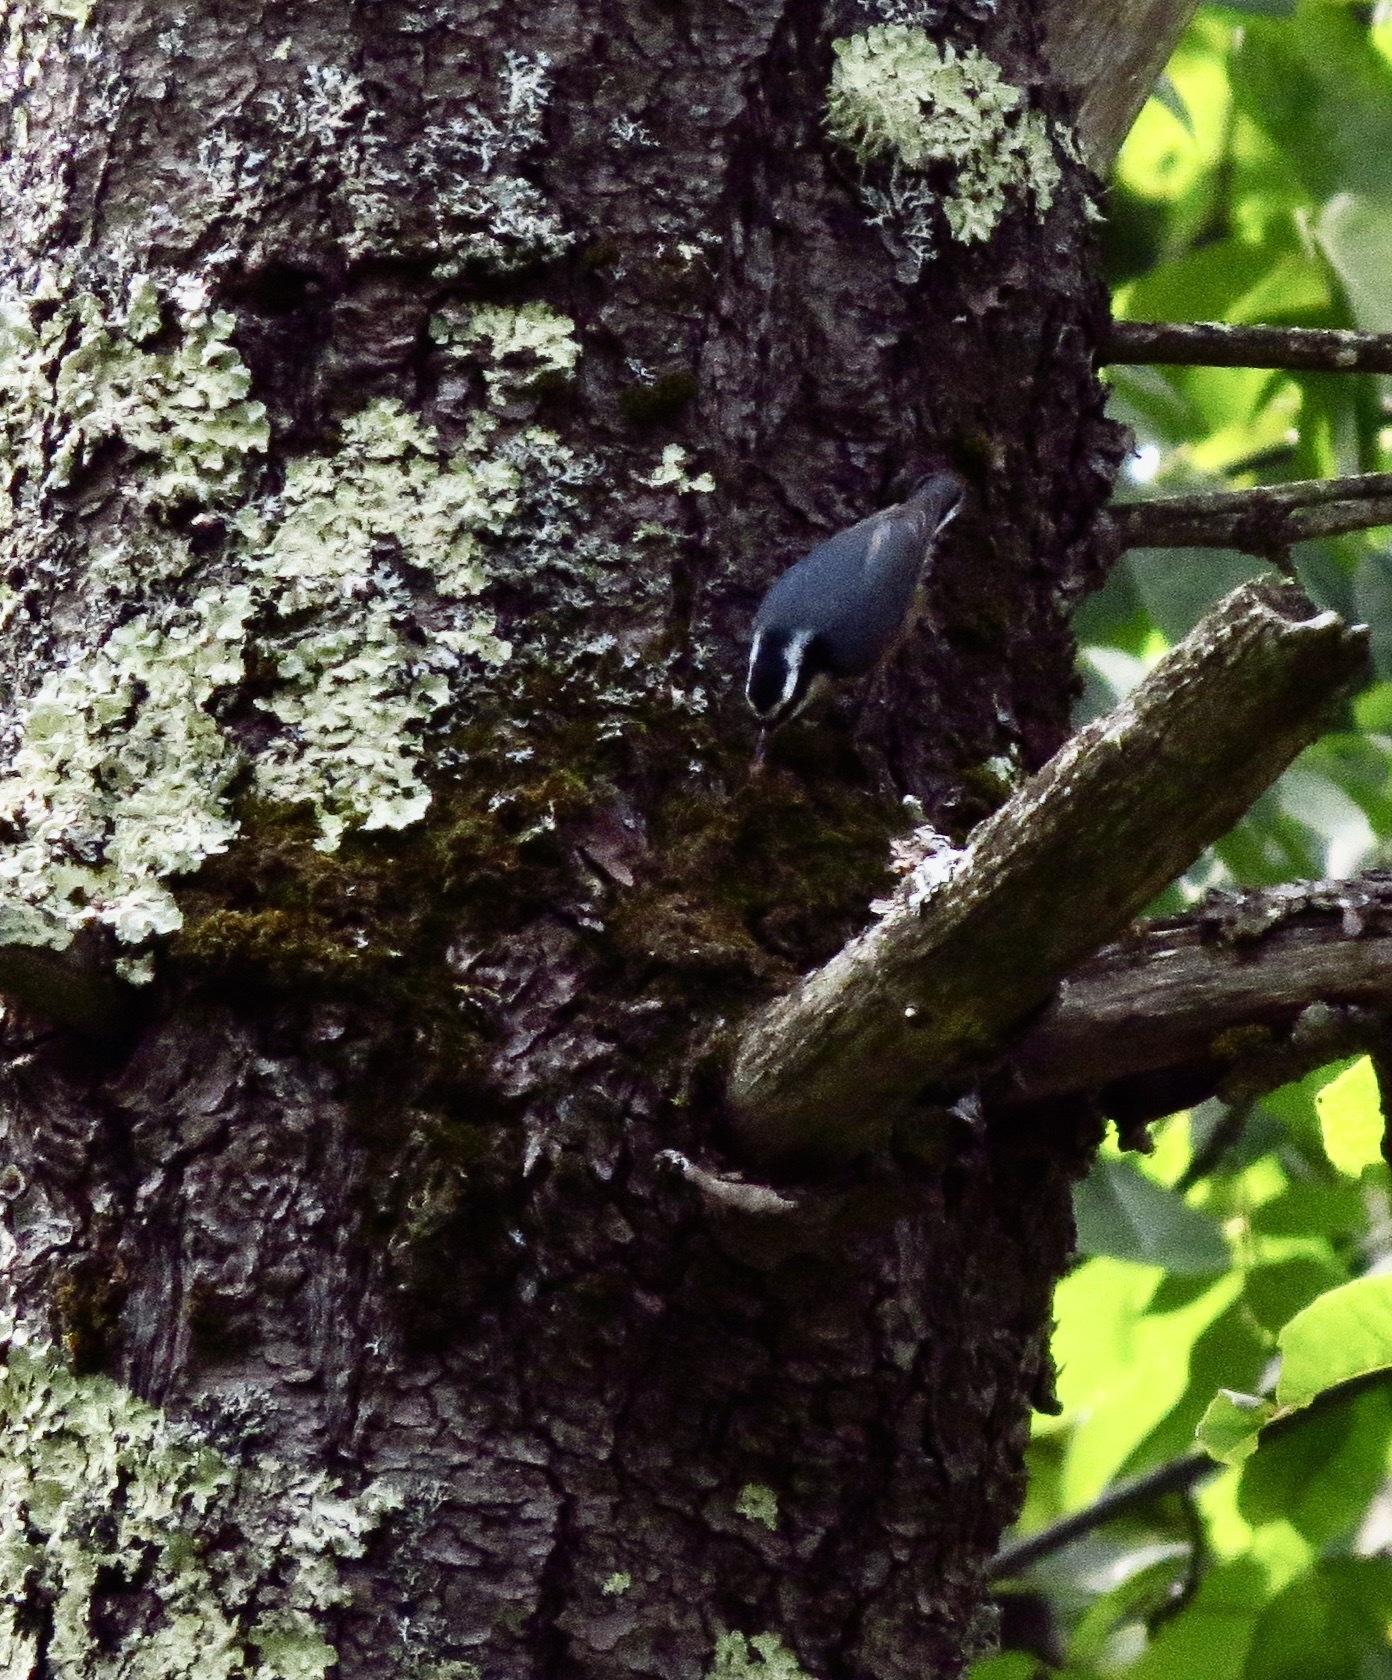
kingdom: Animalia
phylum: Chordata
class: Aves
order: Passeriformes
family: Sittidae
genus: Sitta
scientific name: Sitta canadensis
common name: Red-breasted nuthatch
